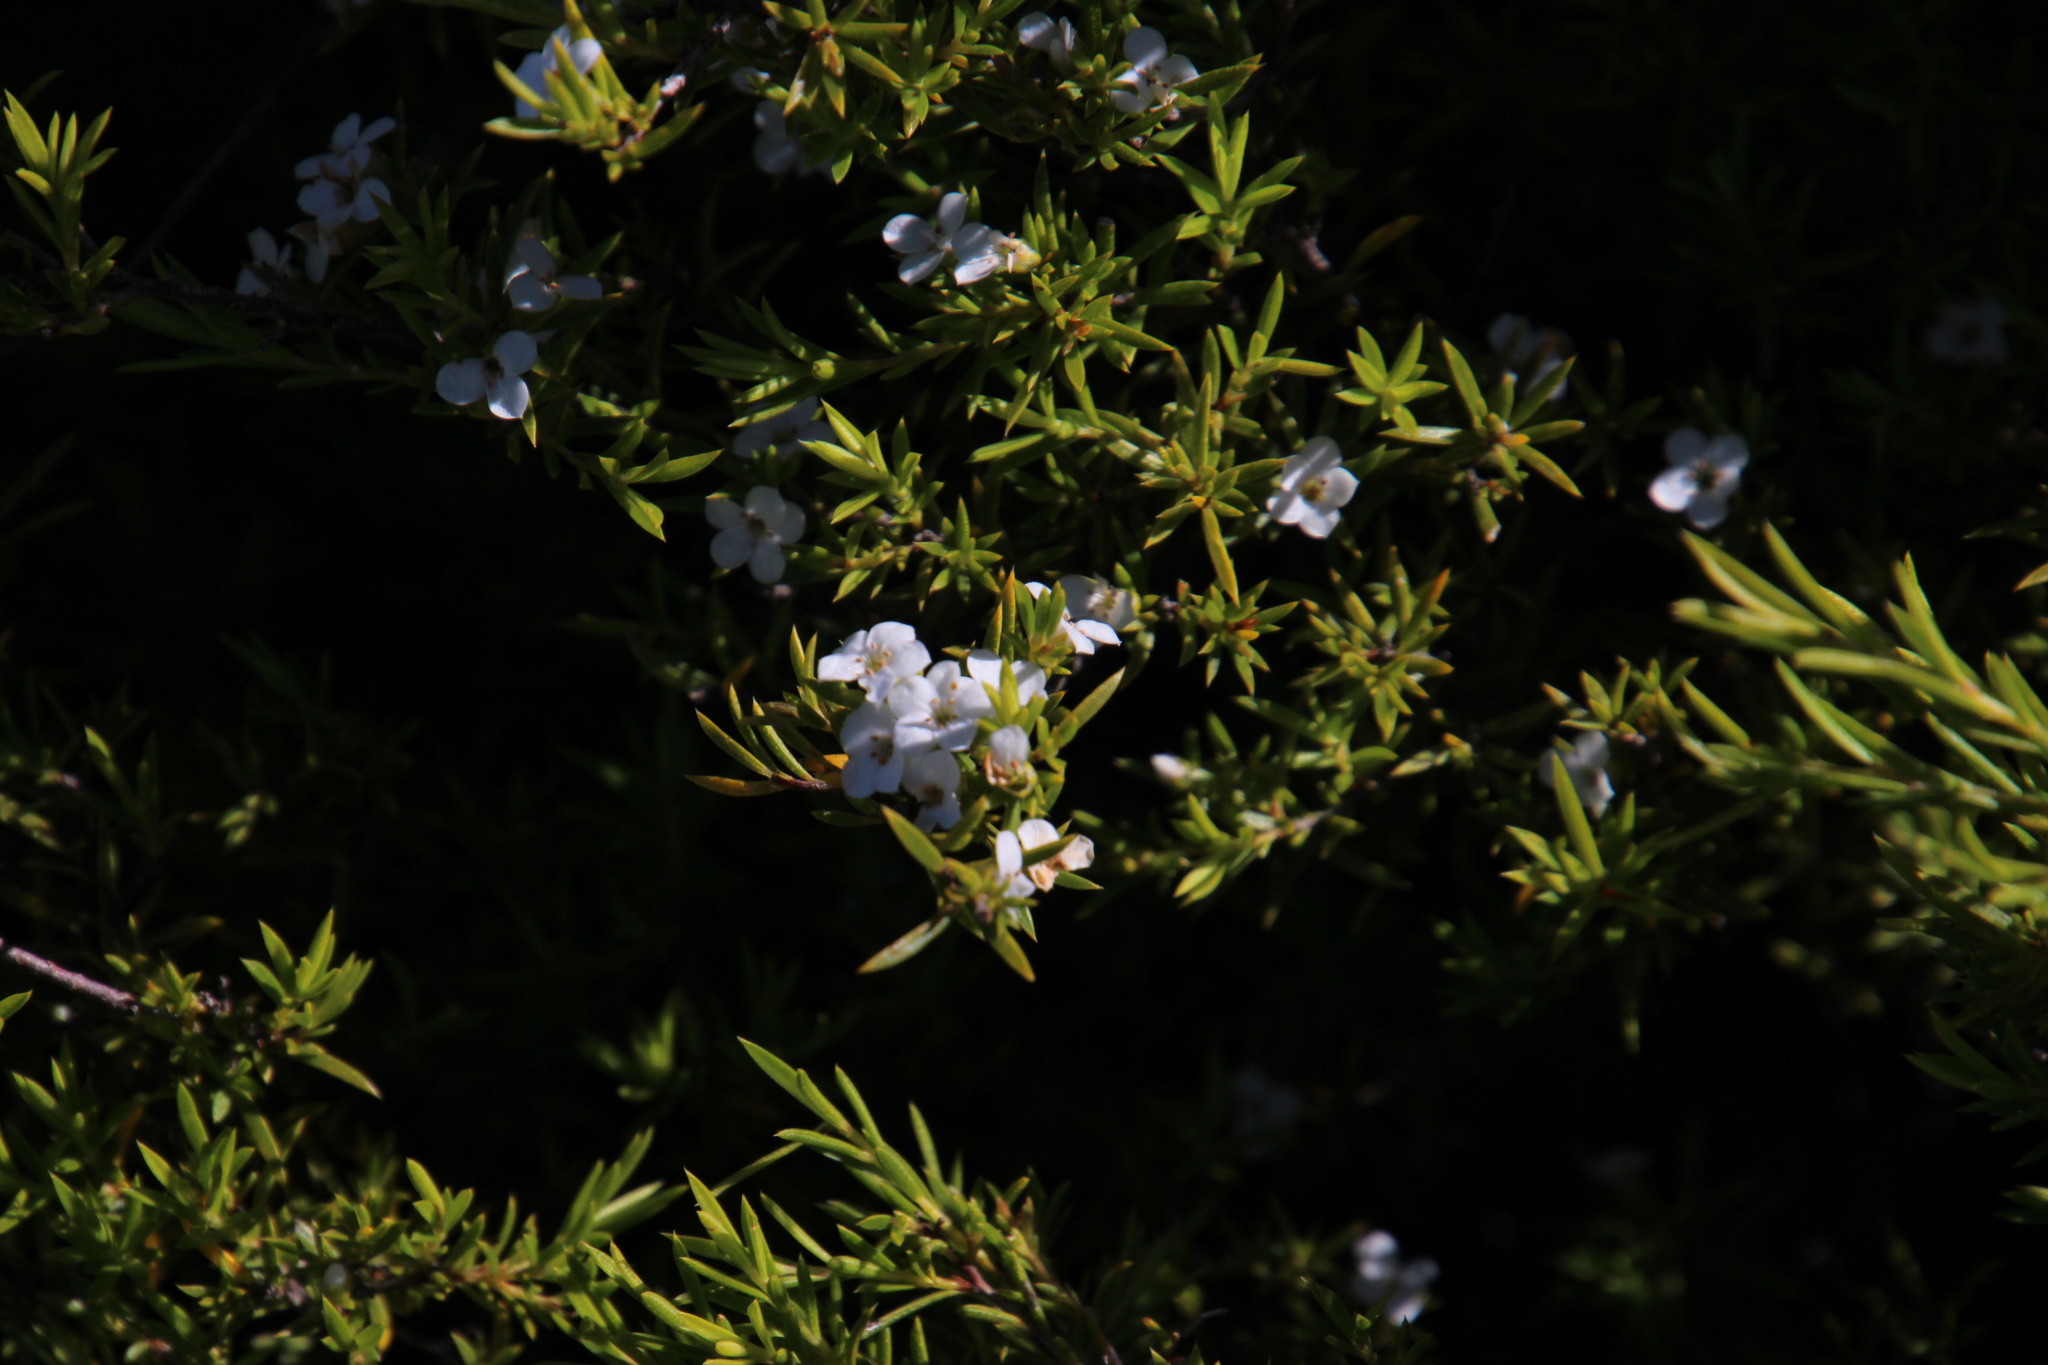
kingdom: Plantae
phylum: Tracheophyta
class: Magnoliopsida
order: Sapindales
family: Rutaceae
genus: Coleonema
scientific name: Coleonema album
